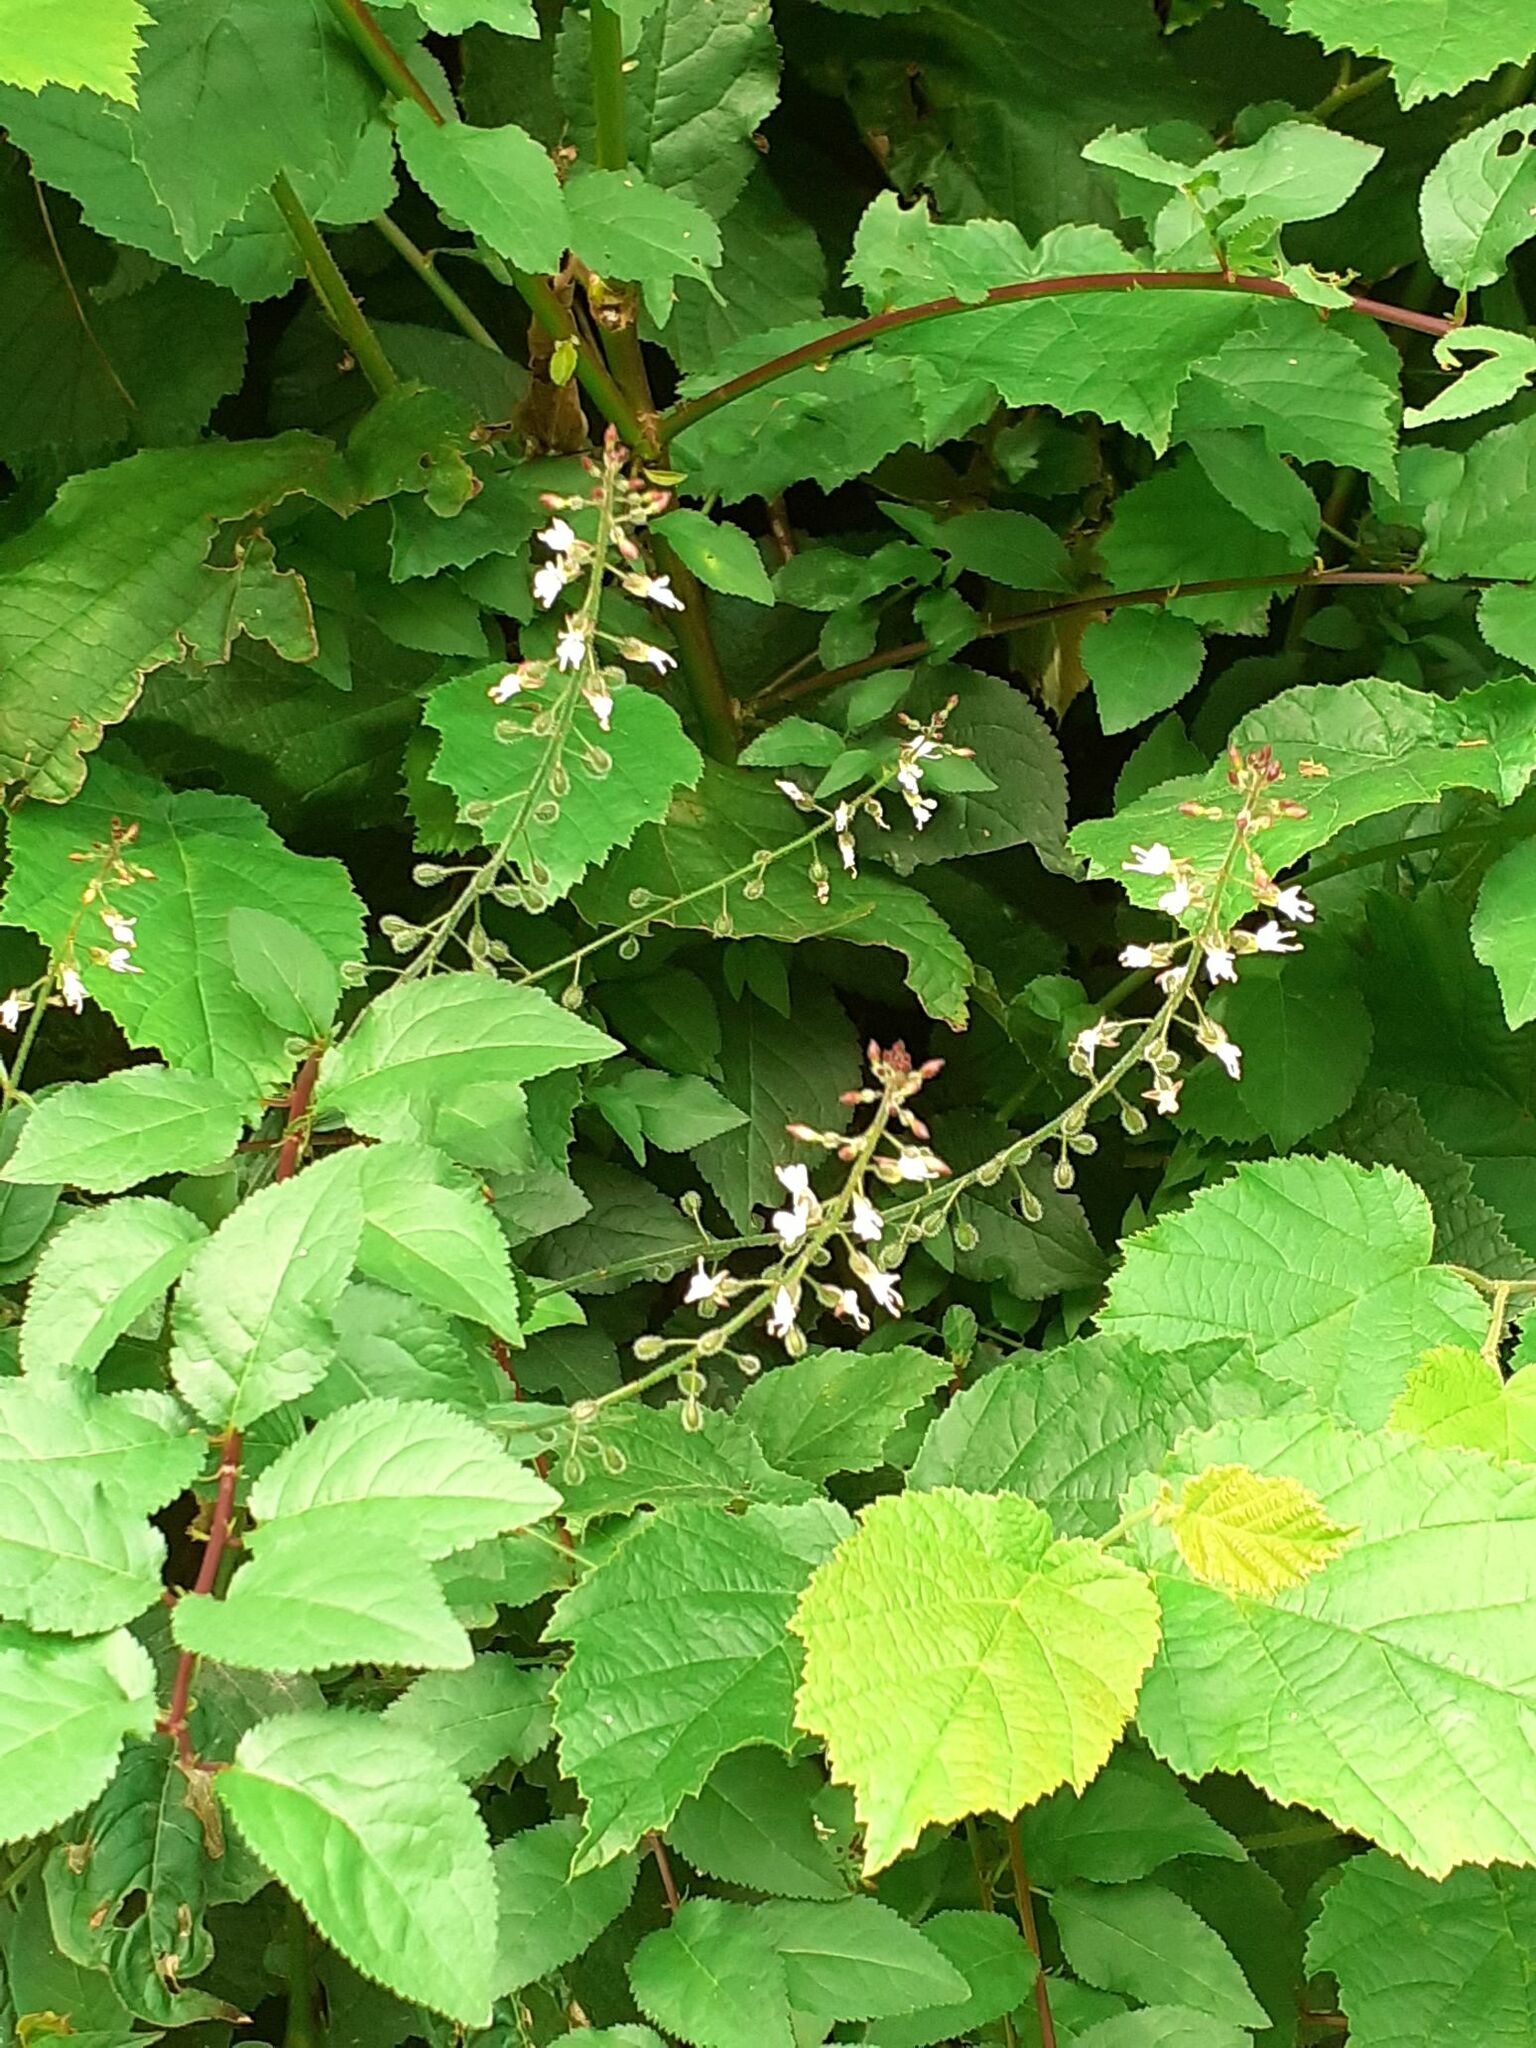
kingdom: Plantae
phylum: Tracheophyta
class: Magnoliopsida
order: Myrtales
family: Onagraceae
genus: Circaea
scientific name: Circaea lutetiana
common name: Enchanter's-nightshade
